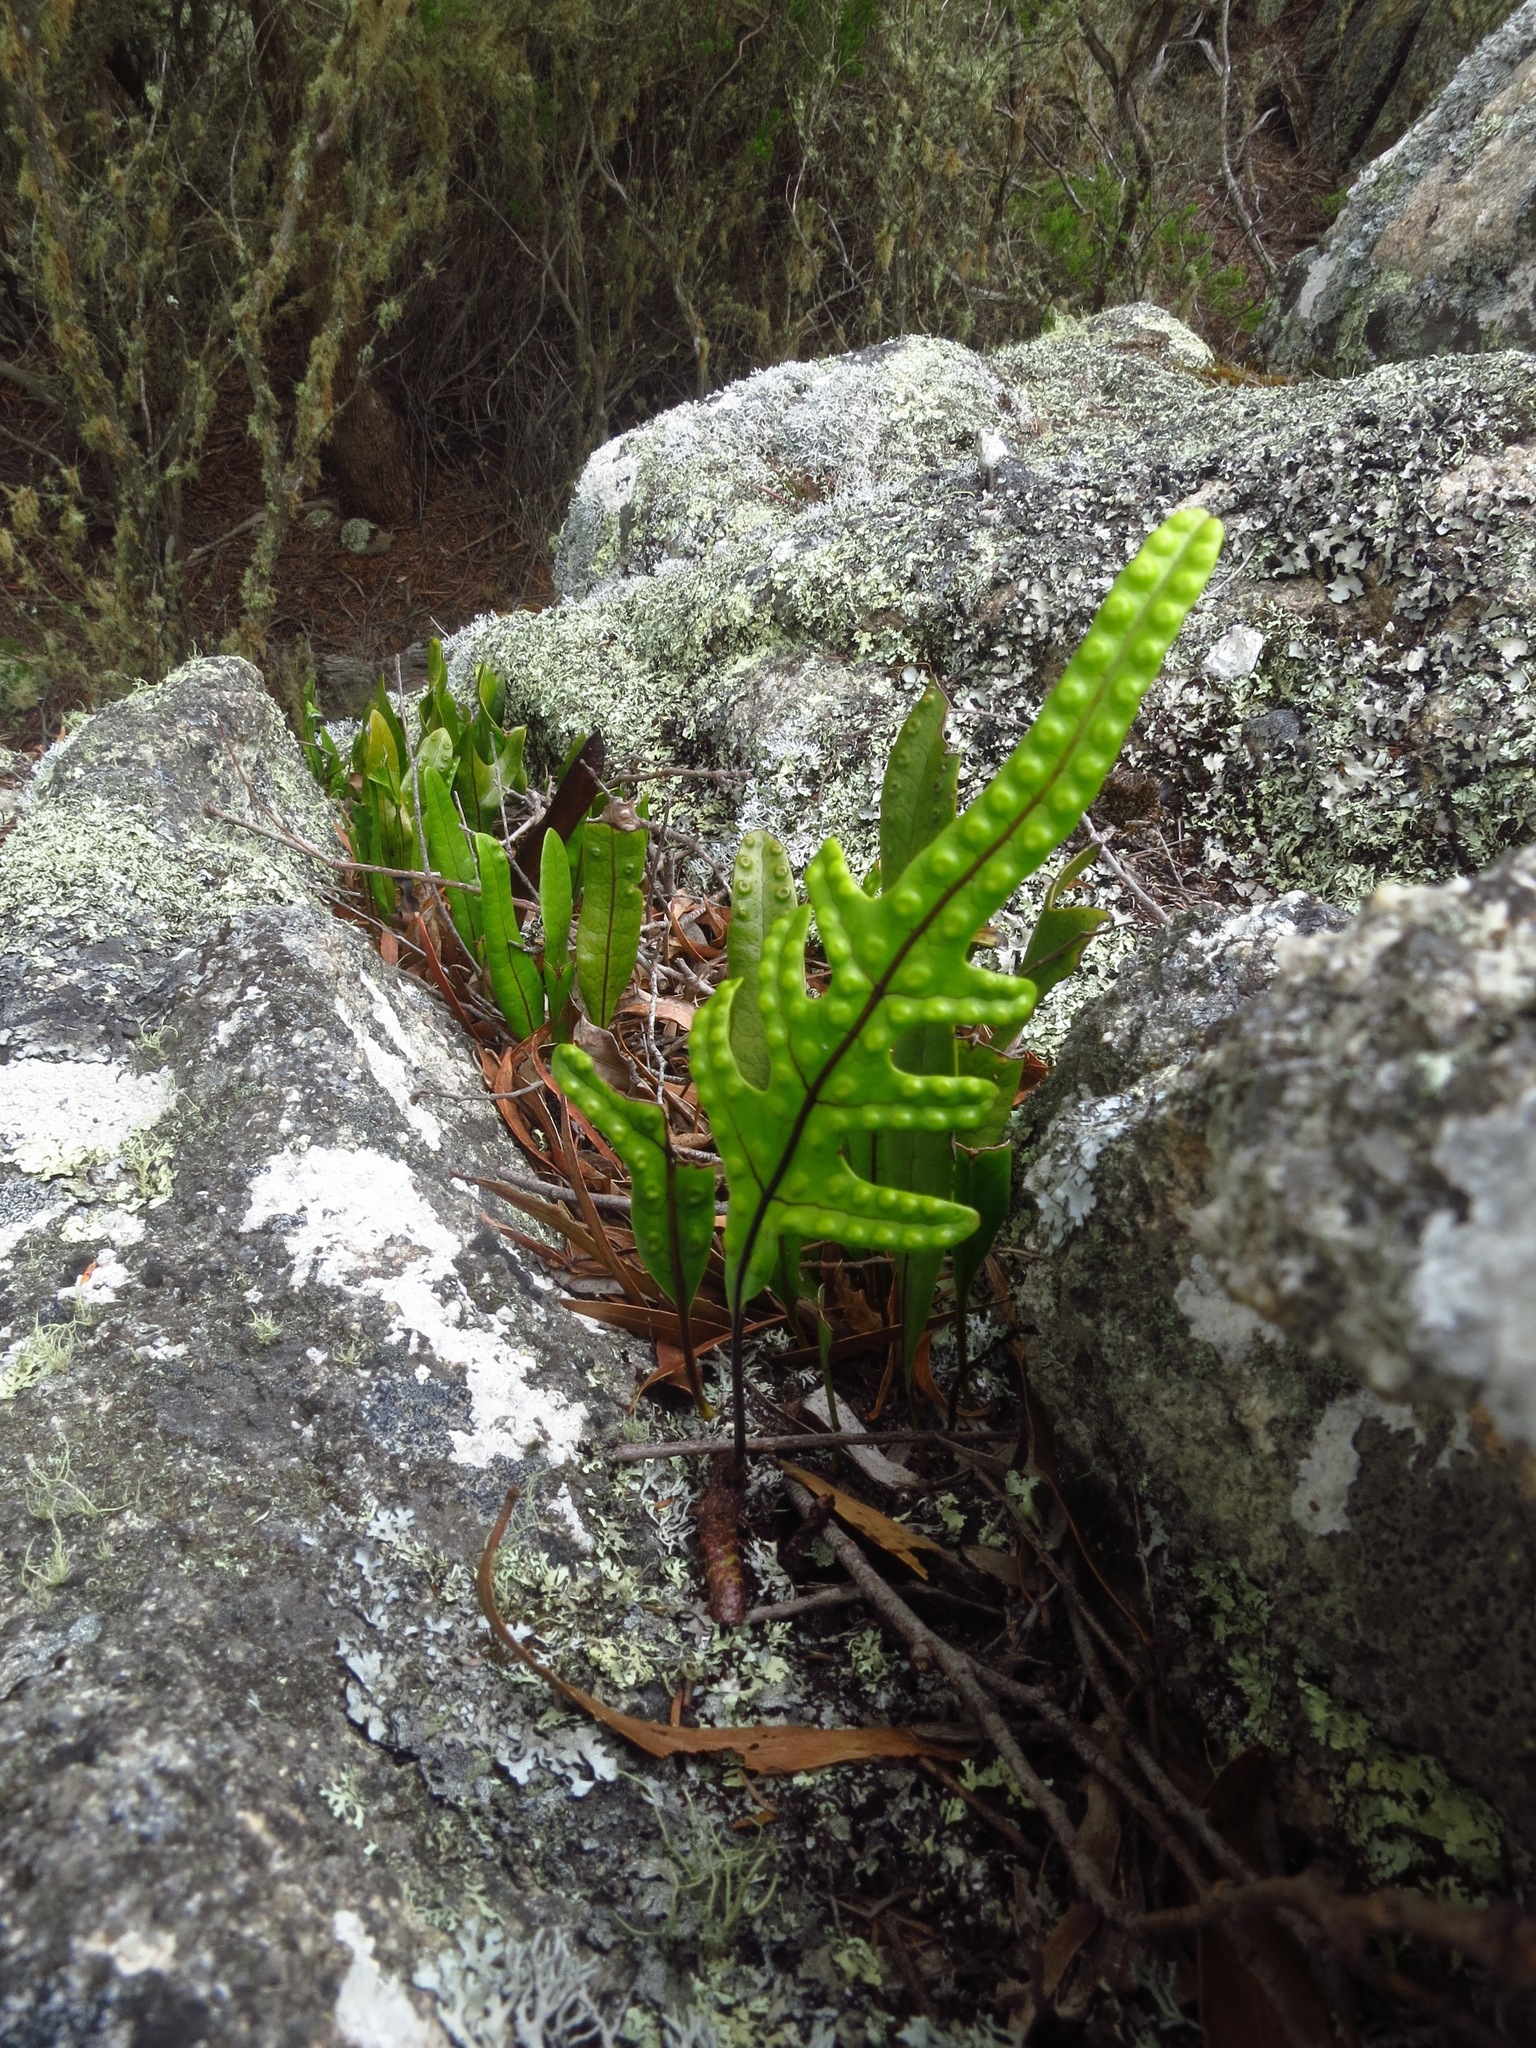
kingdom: Plantae
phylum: Tracheophyta
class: Polypodiopsida
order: Polypodiales
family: Polypodiaceae
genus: Lecanopteris
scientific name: Lecanopteris pustulata
